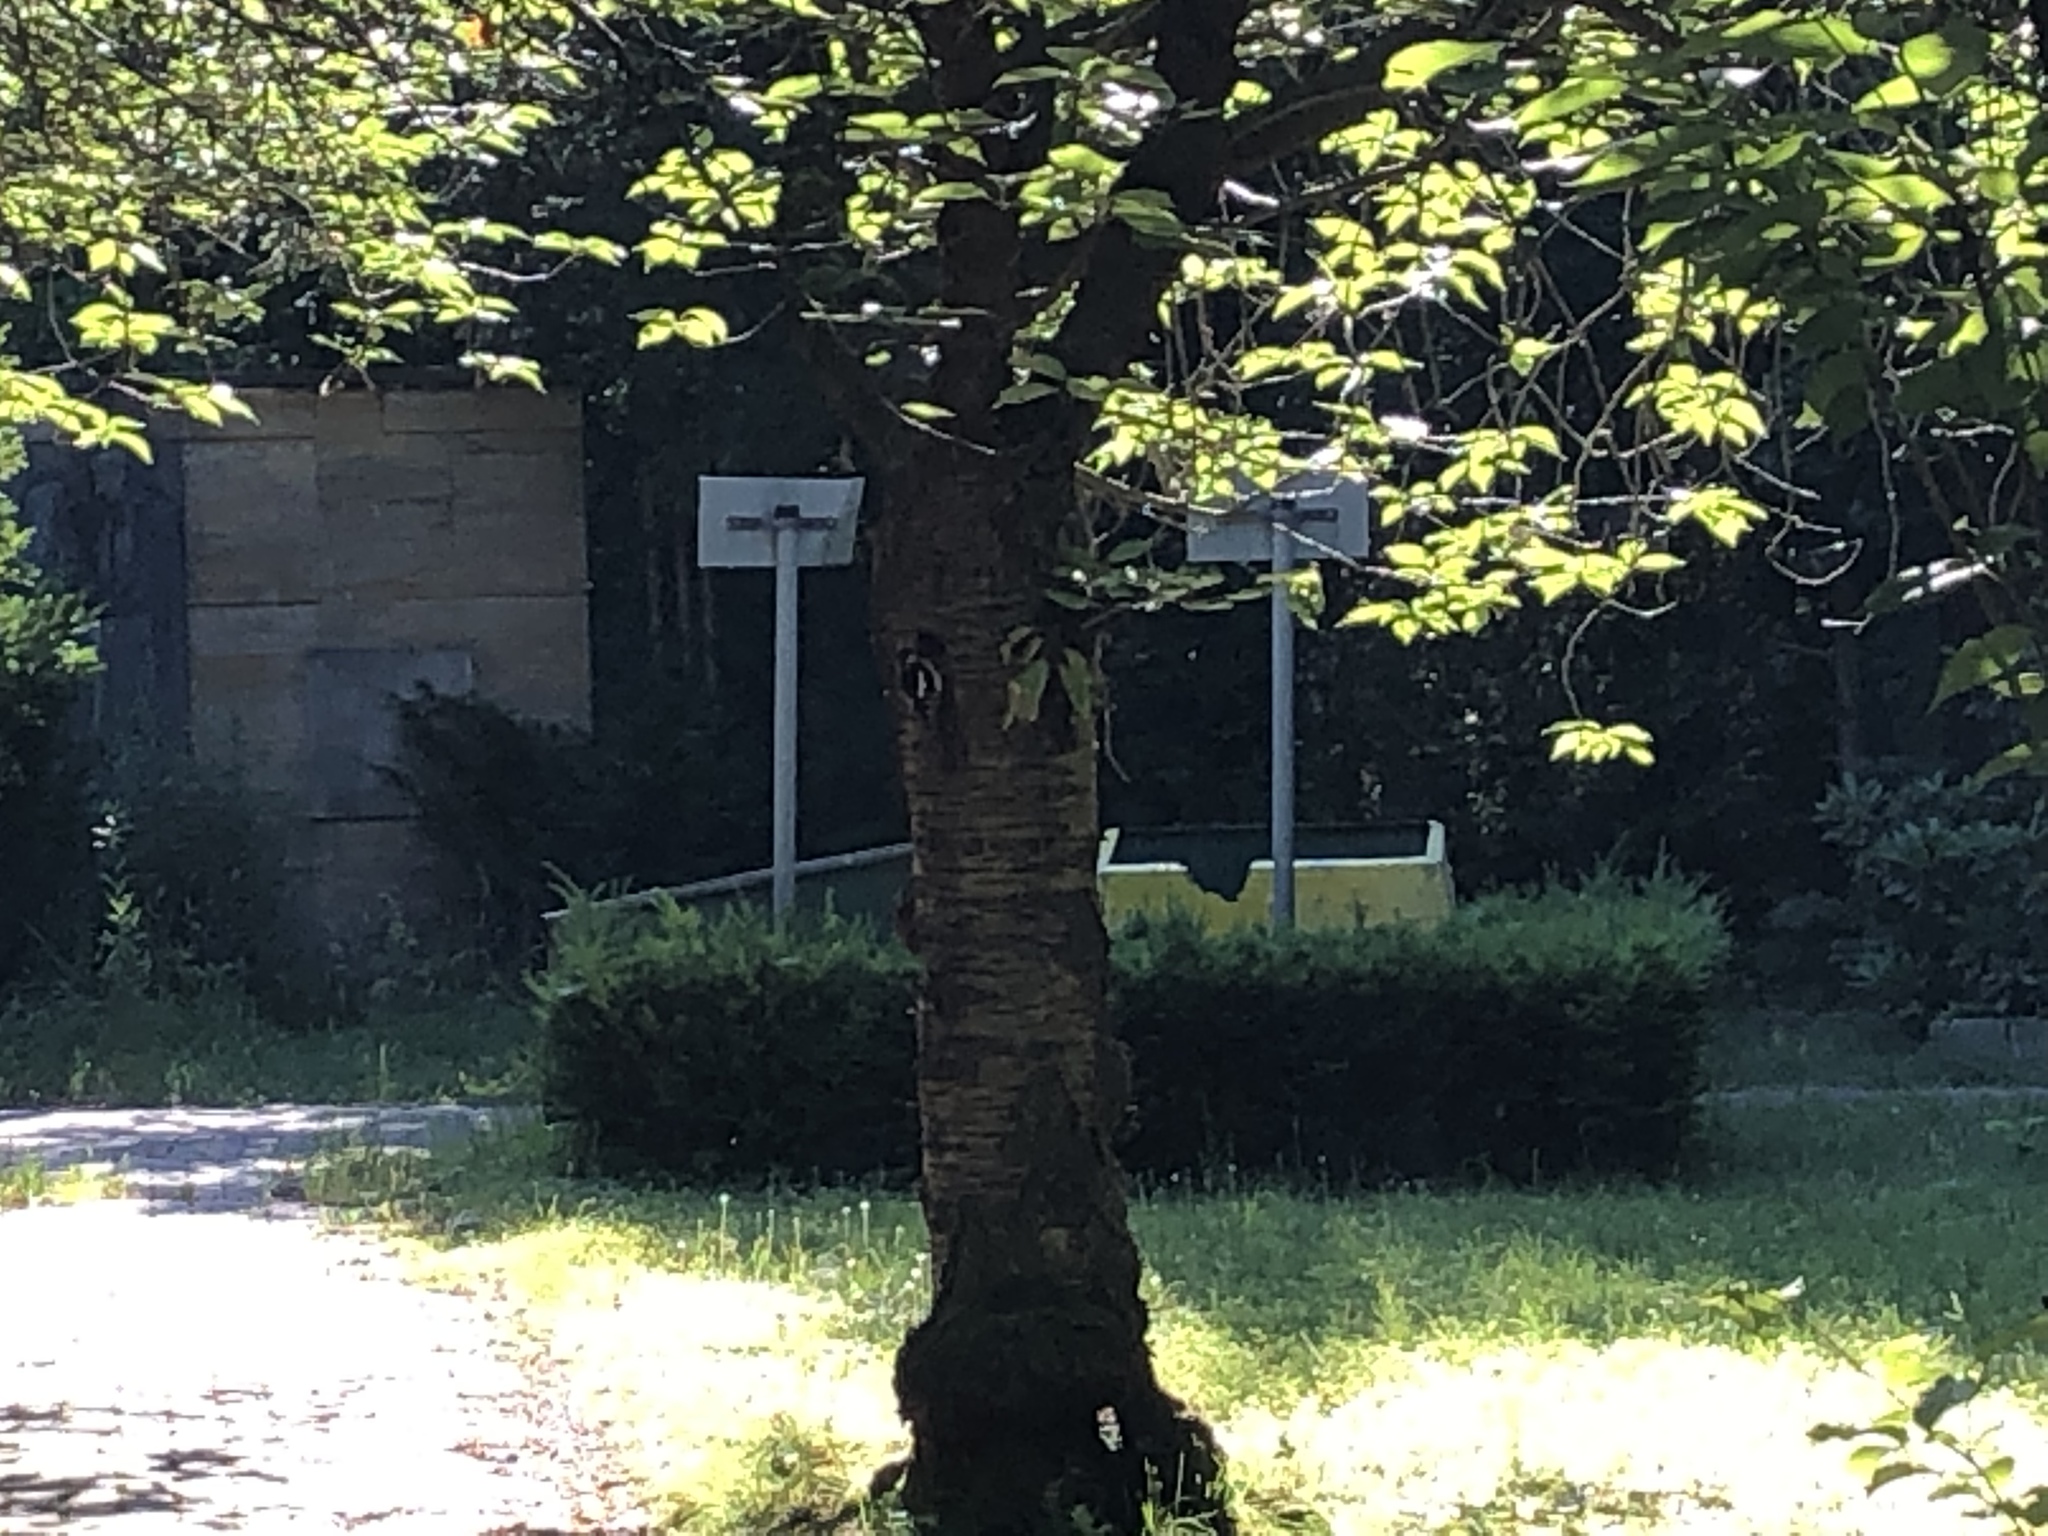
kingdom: Animalia
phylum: Chordata
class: Aves
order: Piciformes
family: Picidae
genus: Dendrocopos
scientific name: Dendrocopos major
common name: Great spotted woodpecker
